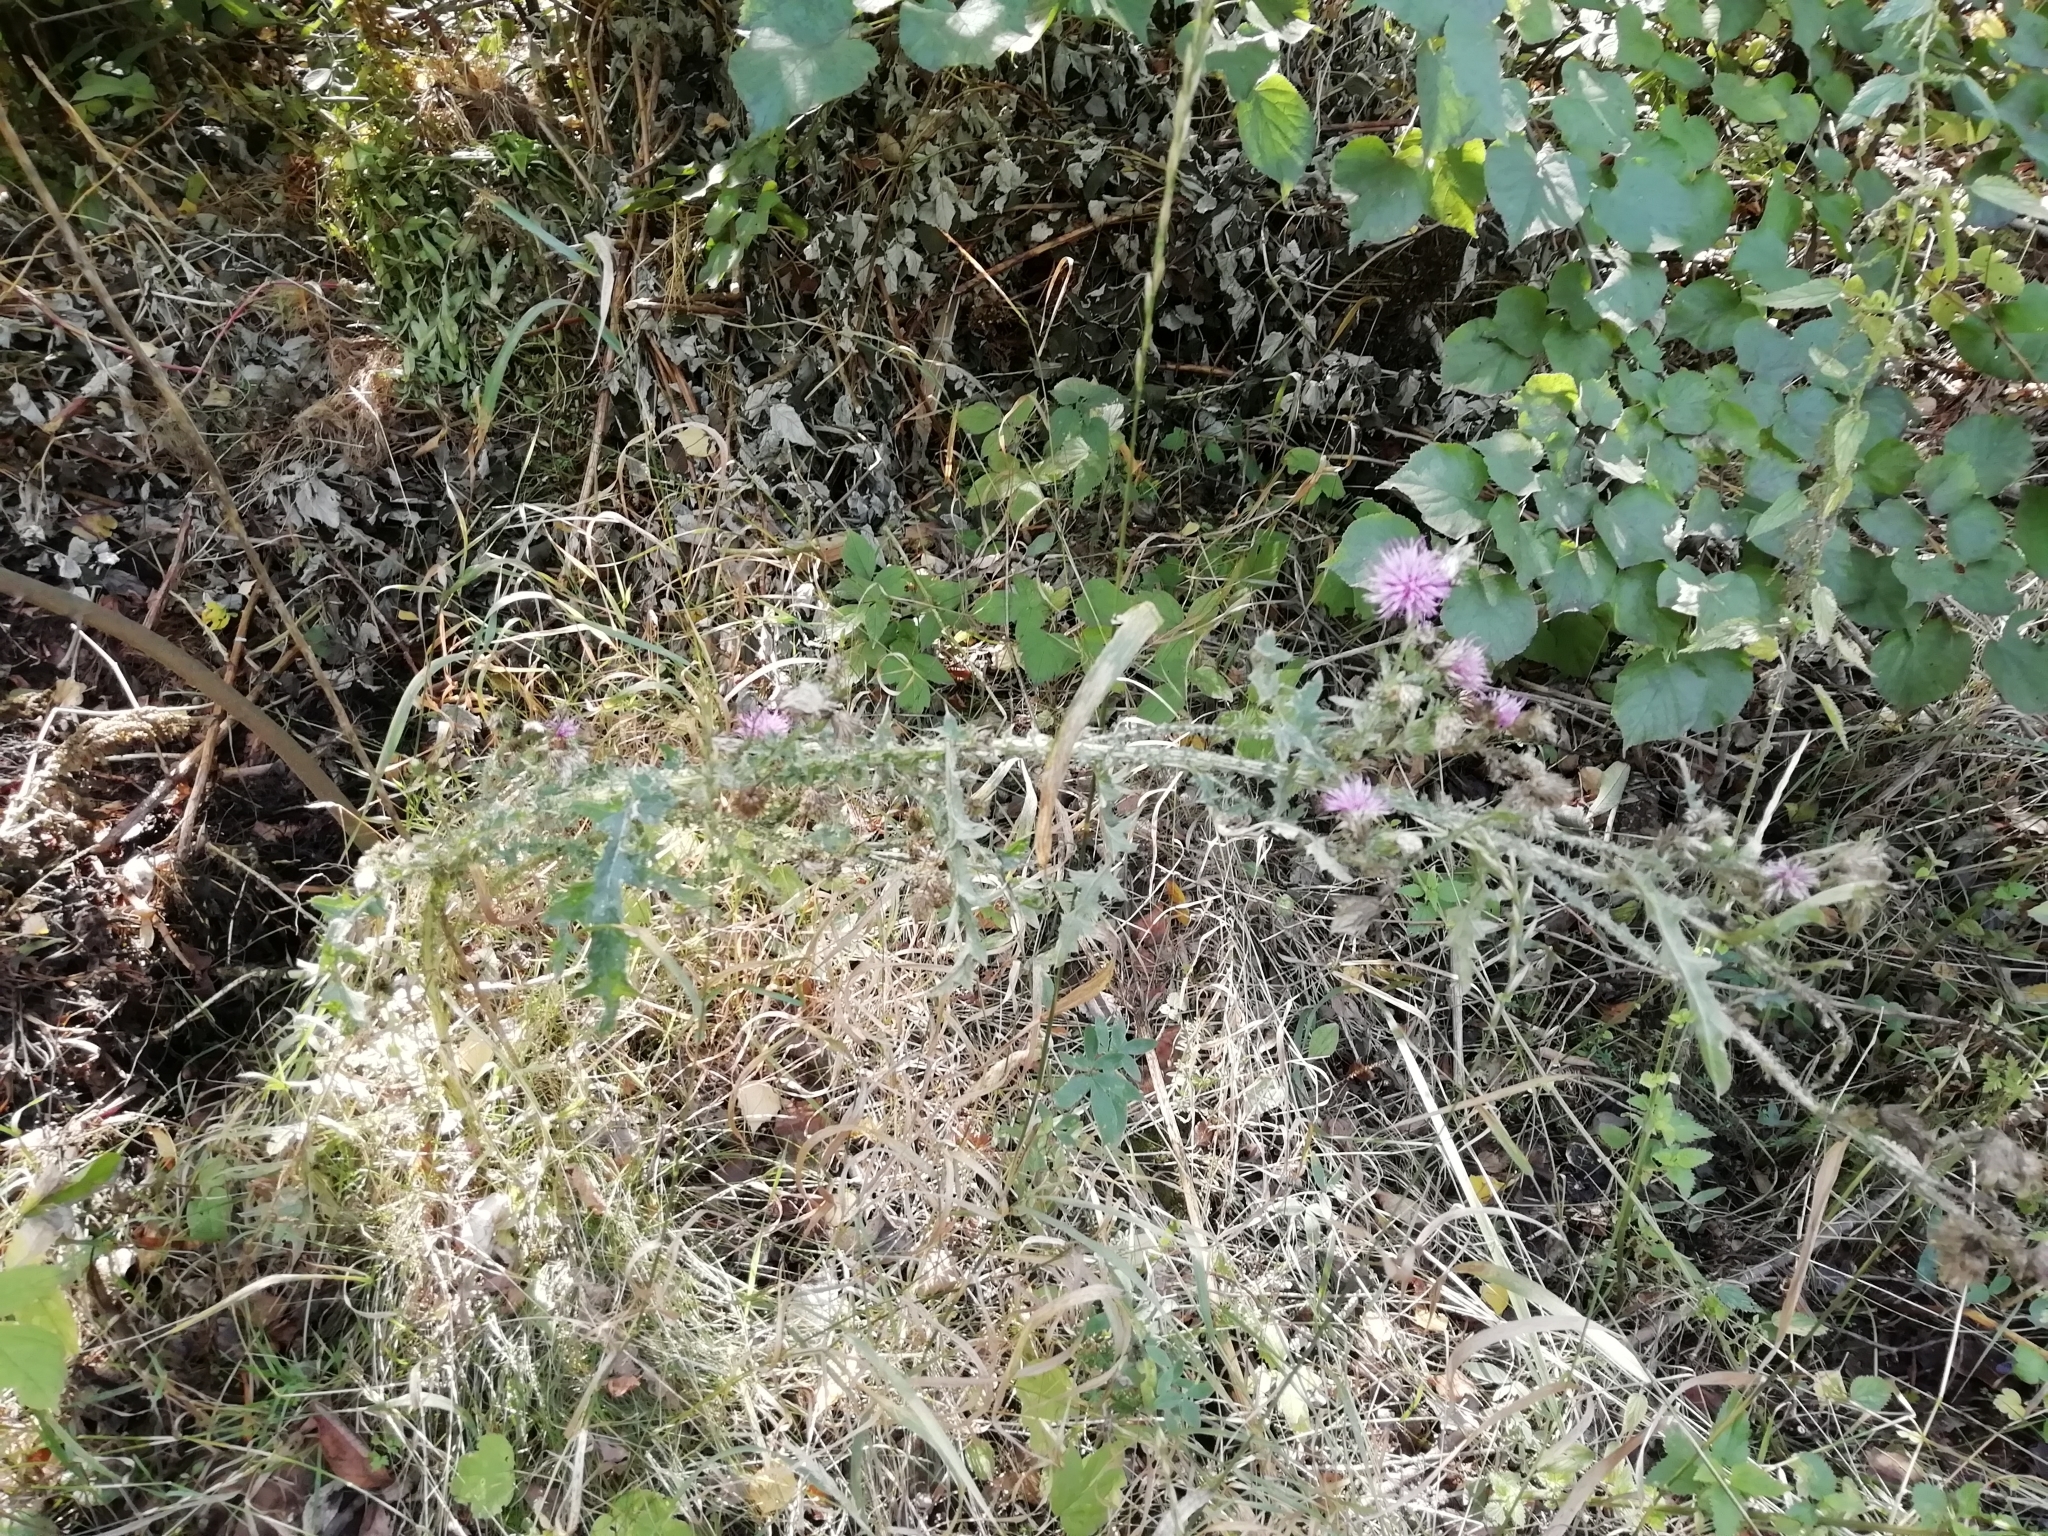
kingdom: Plantae
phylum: Tracheophyta
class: Magnoliopsida
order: Asterales
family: Asteraceae
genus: Carduus
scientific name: Carduus crispus
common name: Welted thistle
